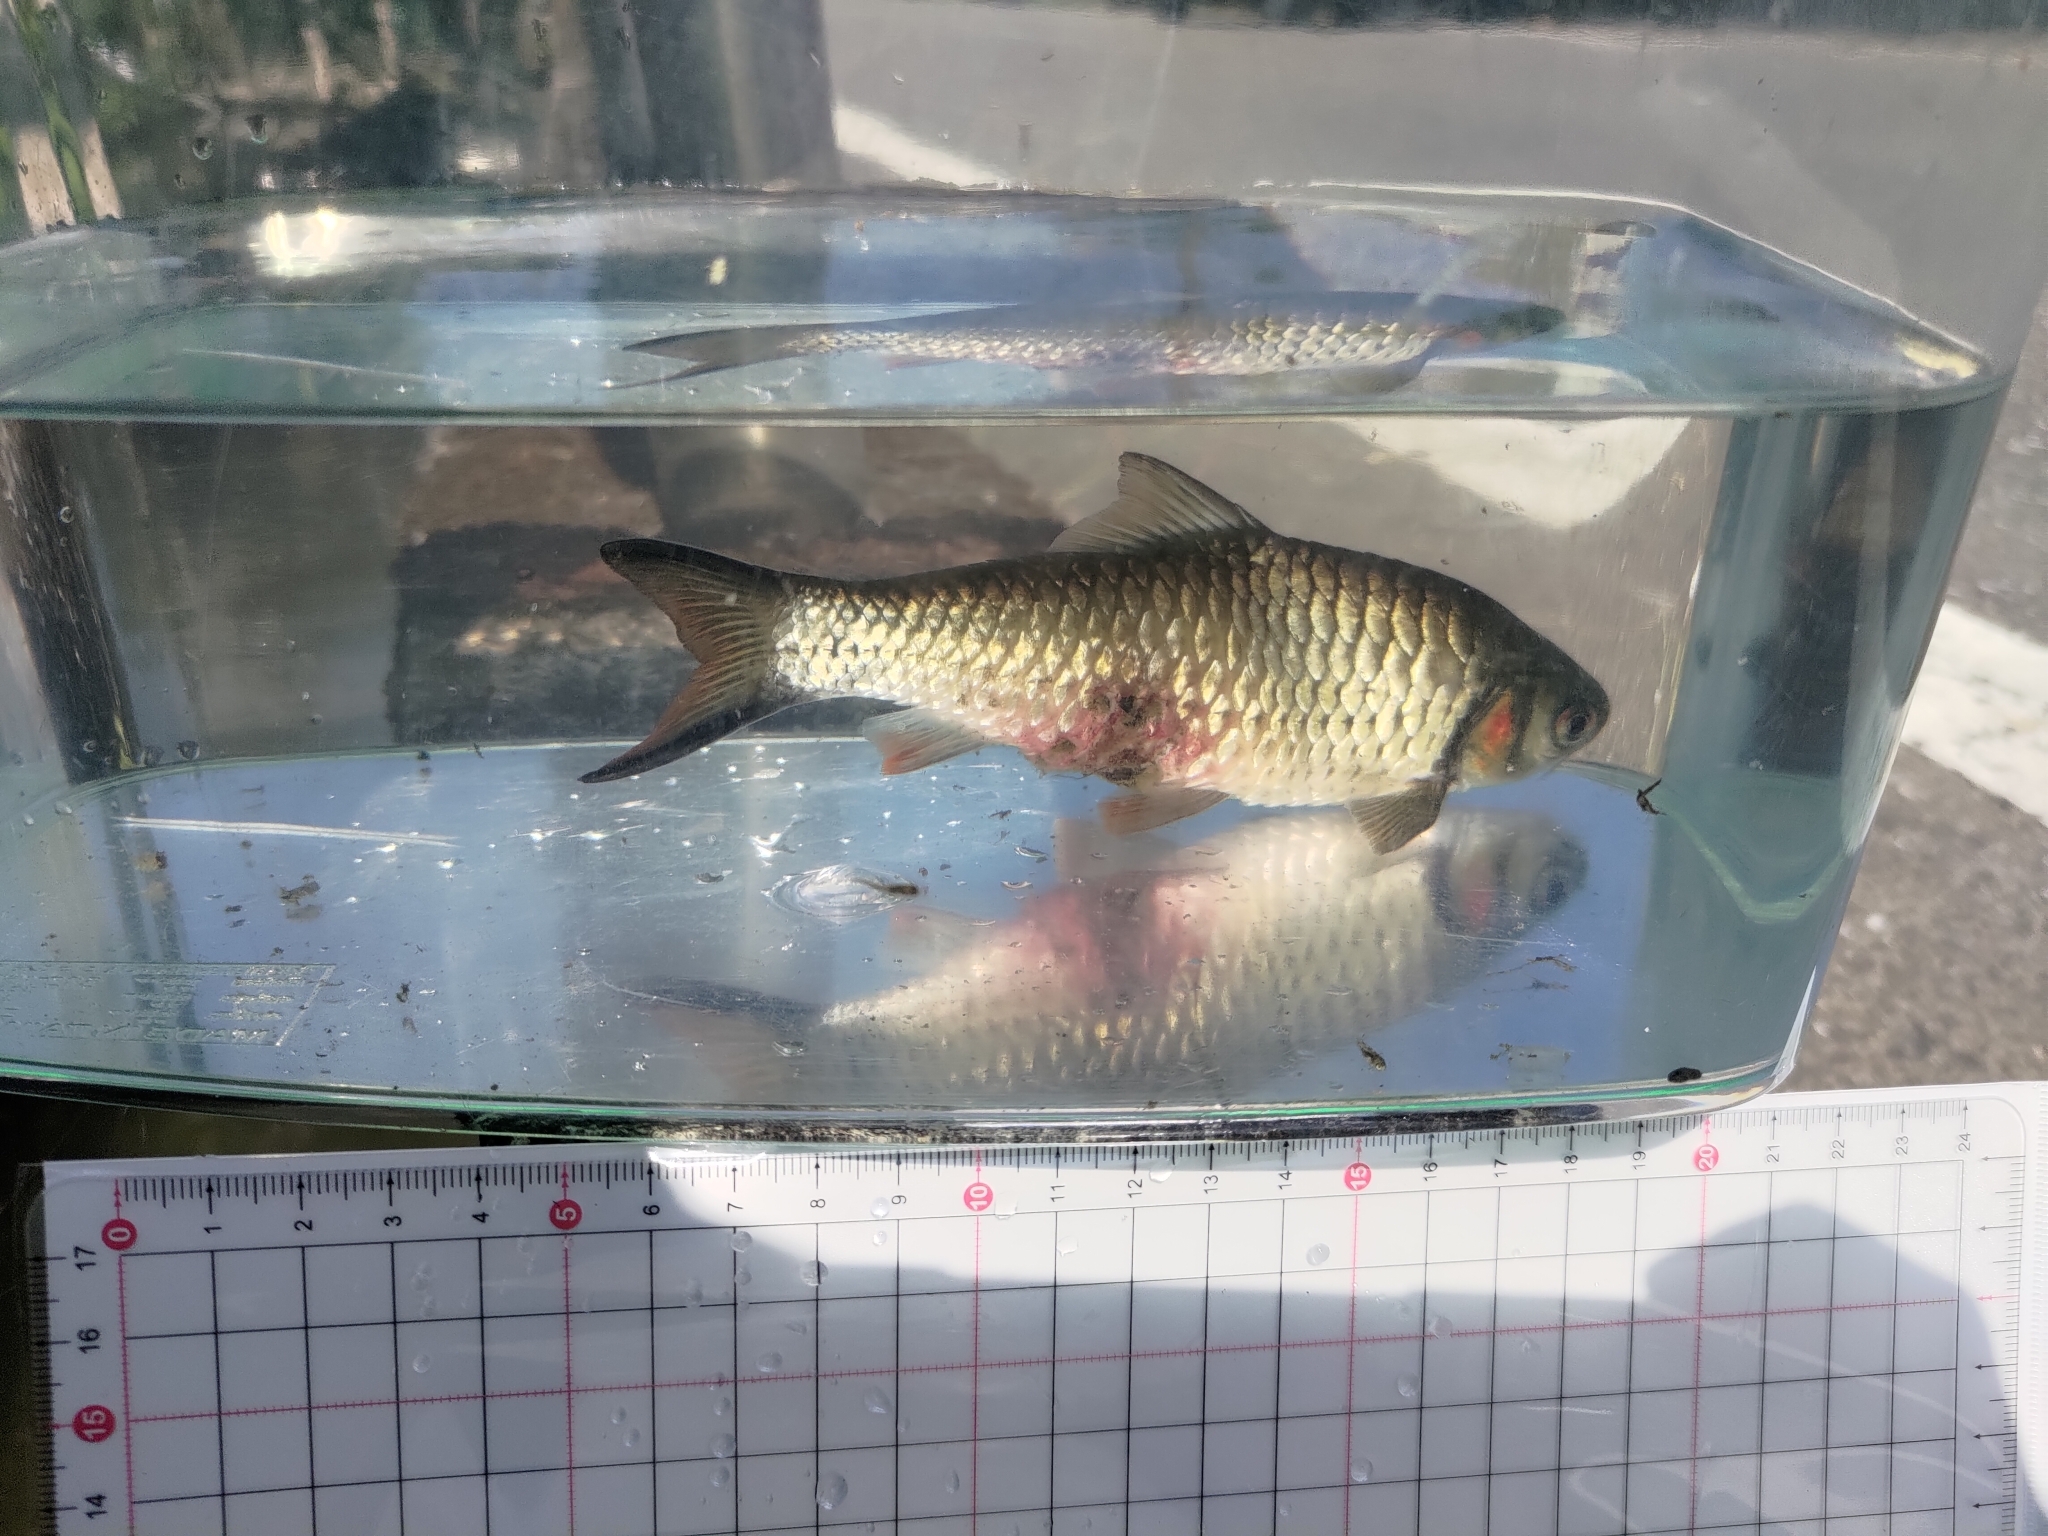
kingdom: Animalia
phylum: Chordata
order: Cypriniformes
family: Cyprinidae
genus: Systomus
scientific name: Systomus orphoides
